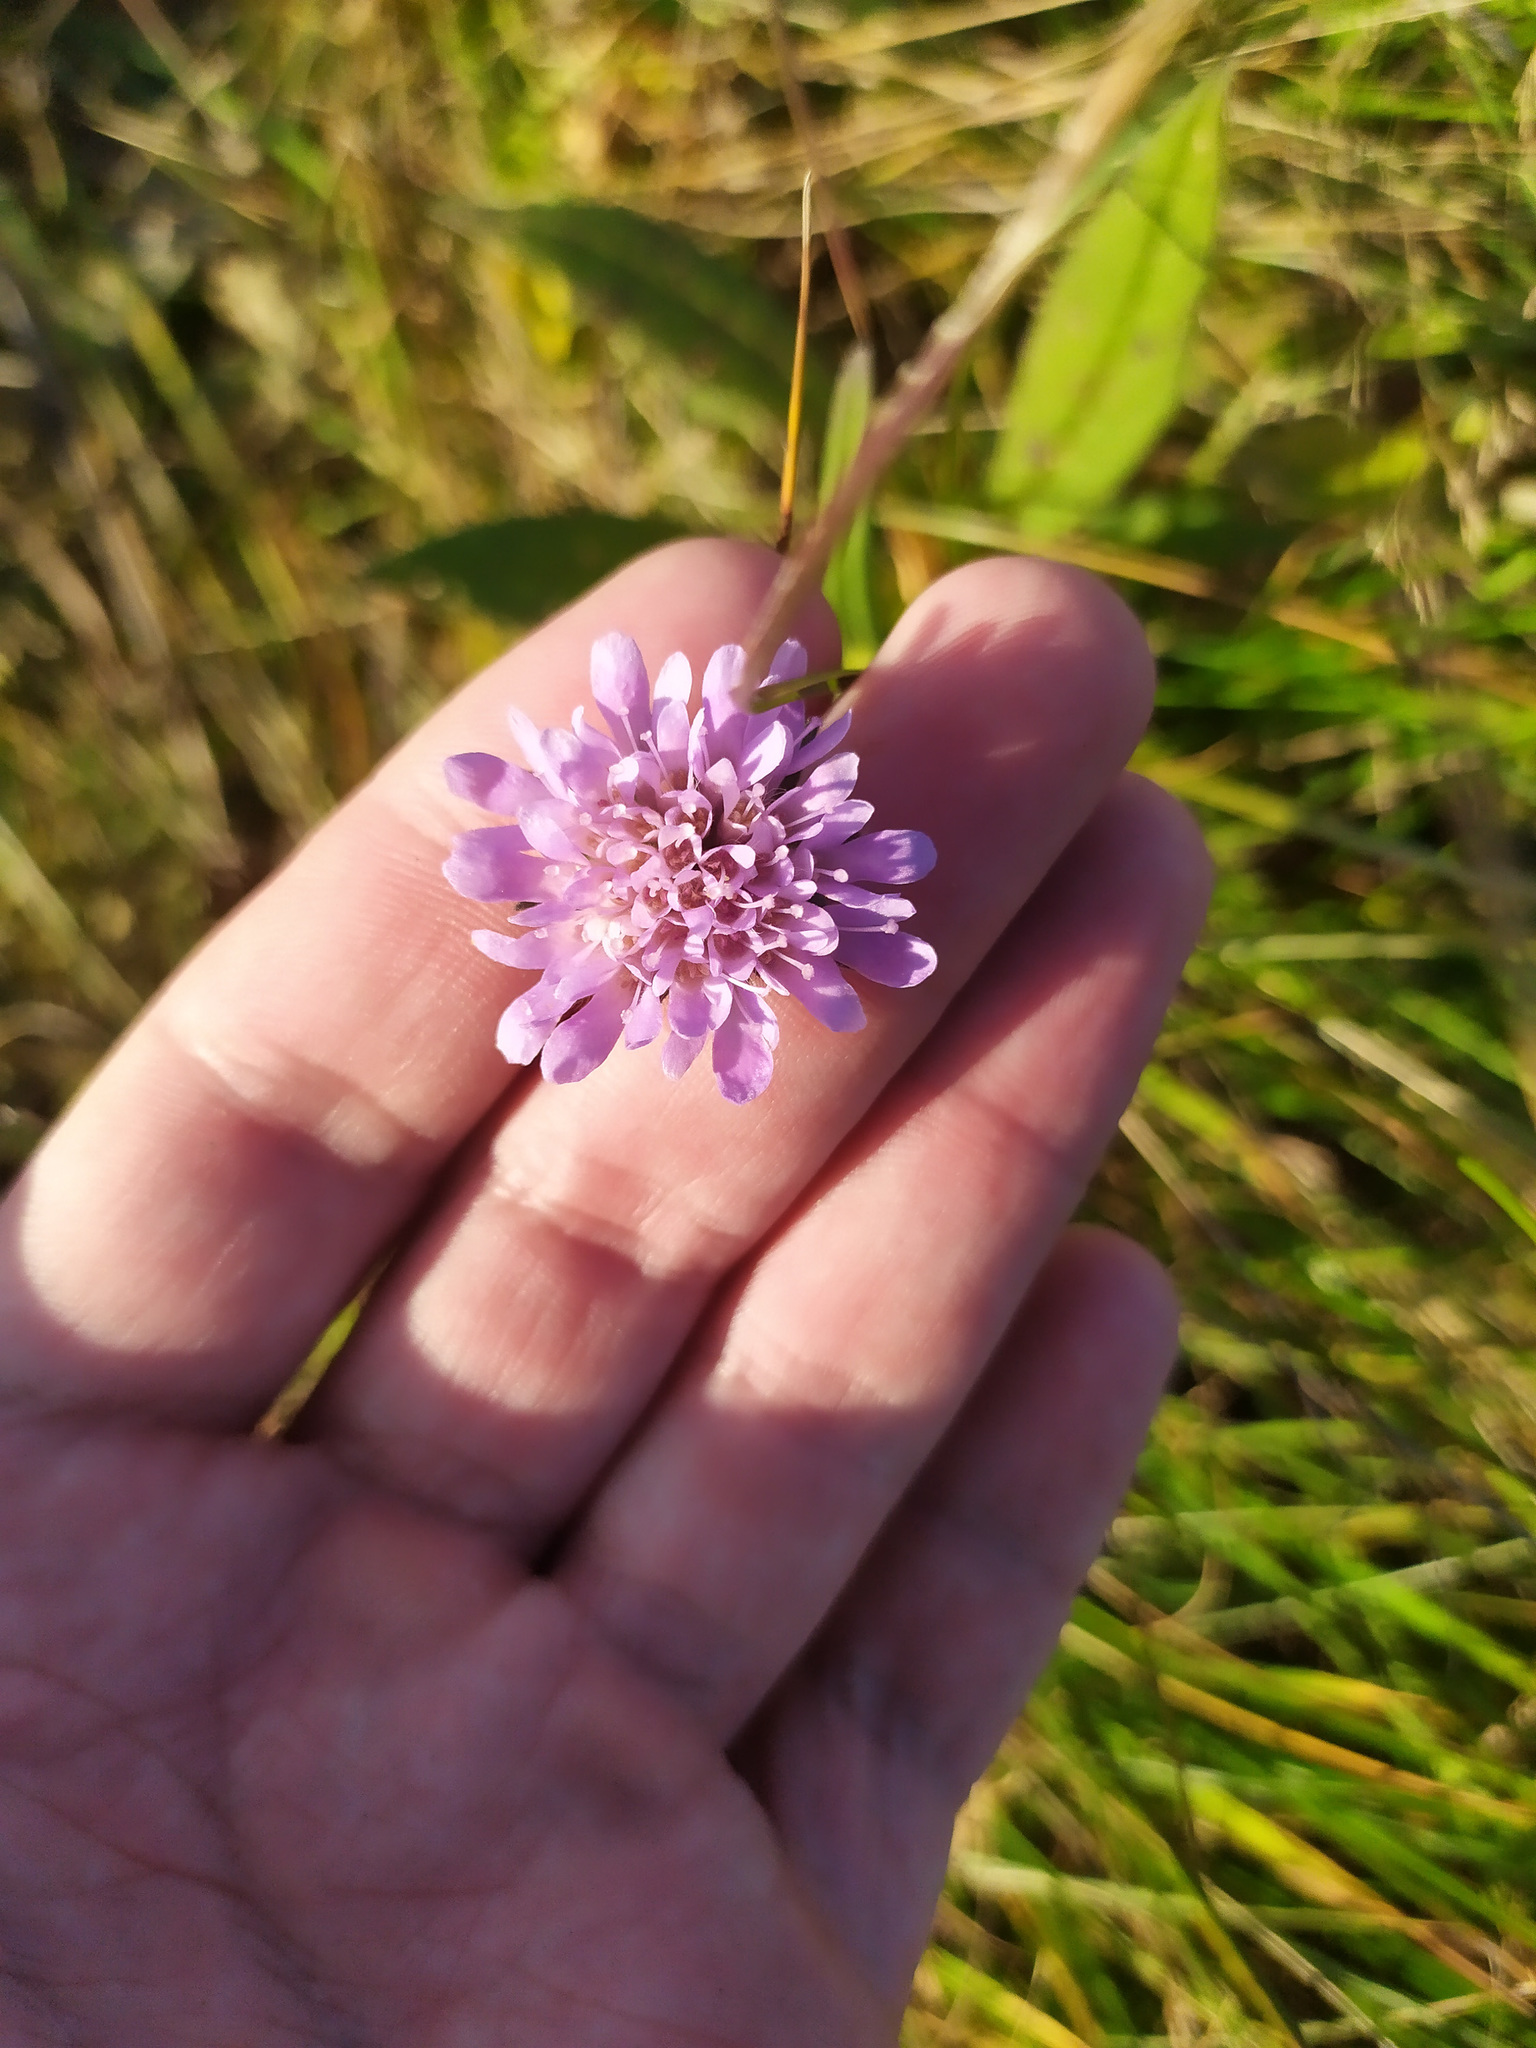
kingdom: Plantae
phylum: Tracheophyta
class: Magnoliopsida
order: Dipsacales
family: Caprifoliaceae
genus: Knautia
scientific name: Knautia arvensis
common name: Field scabiosa
